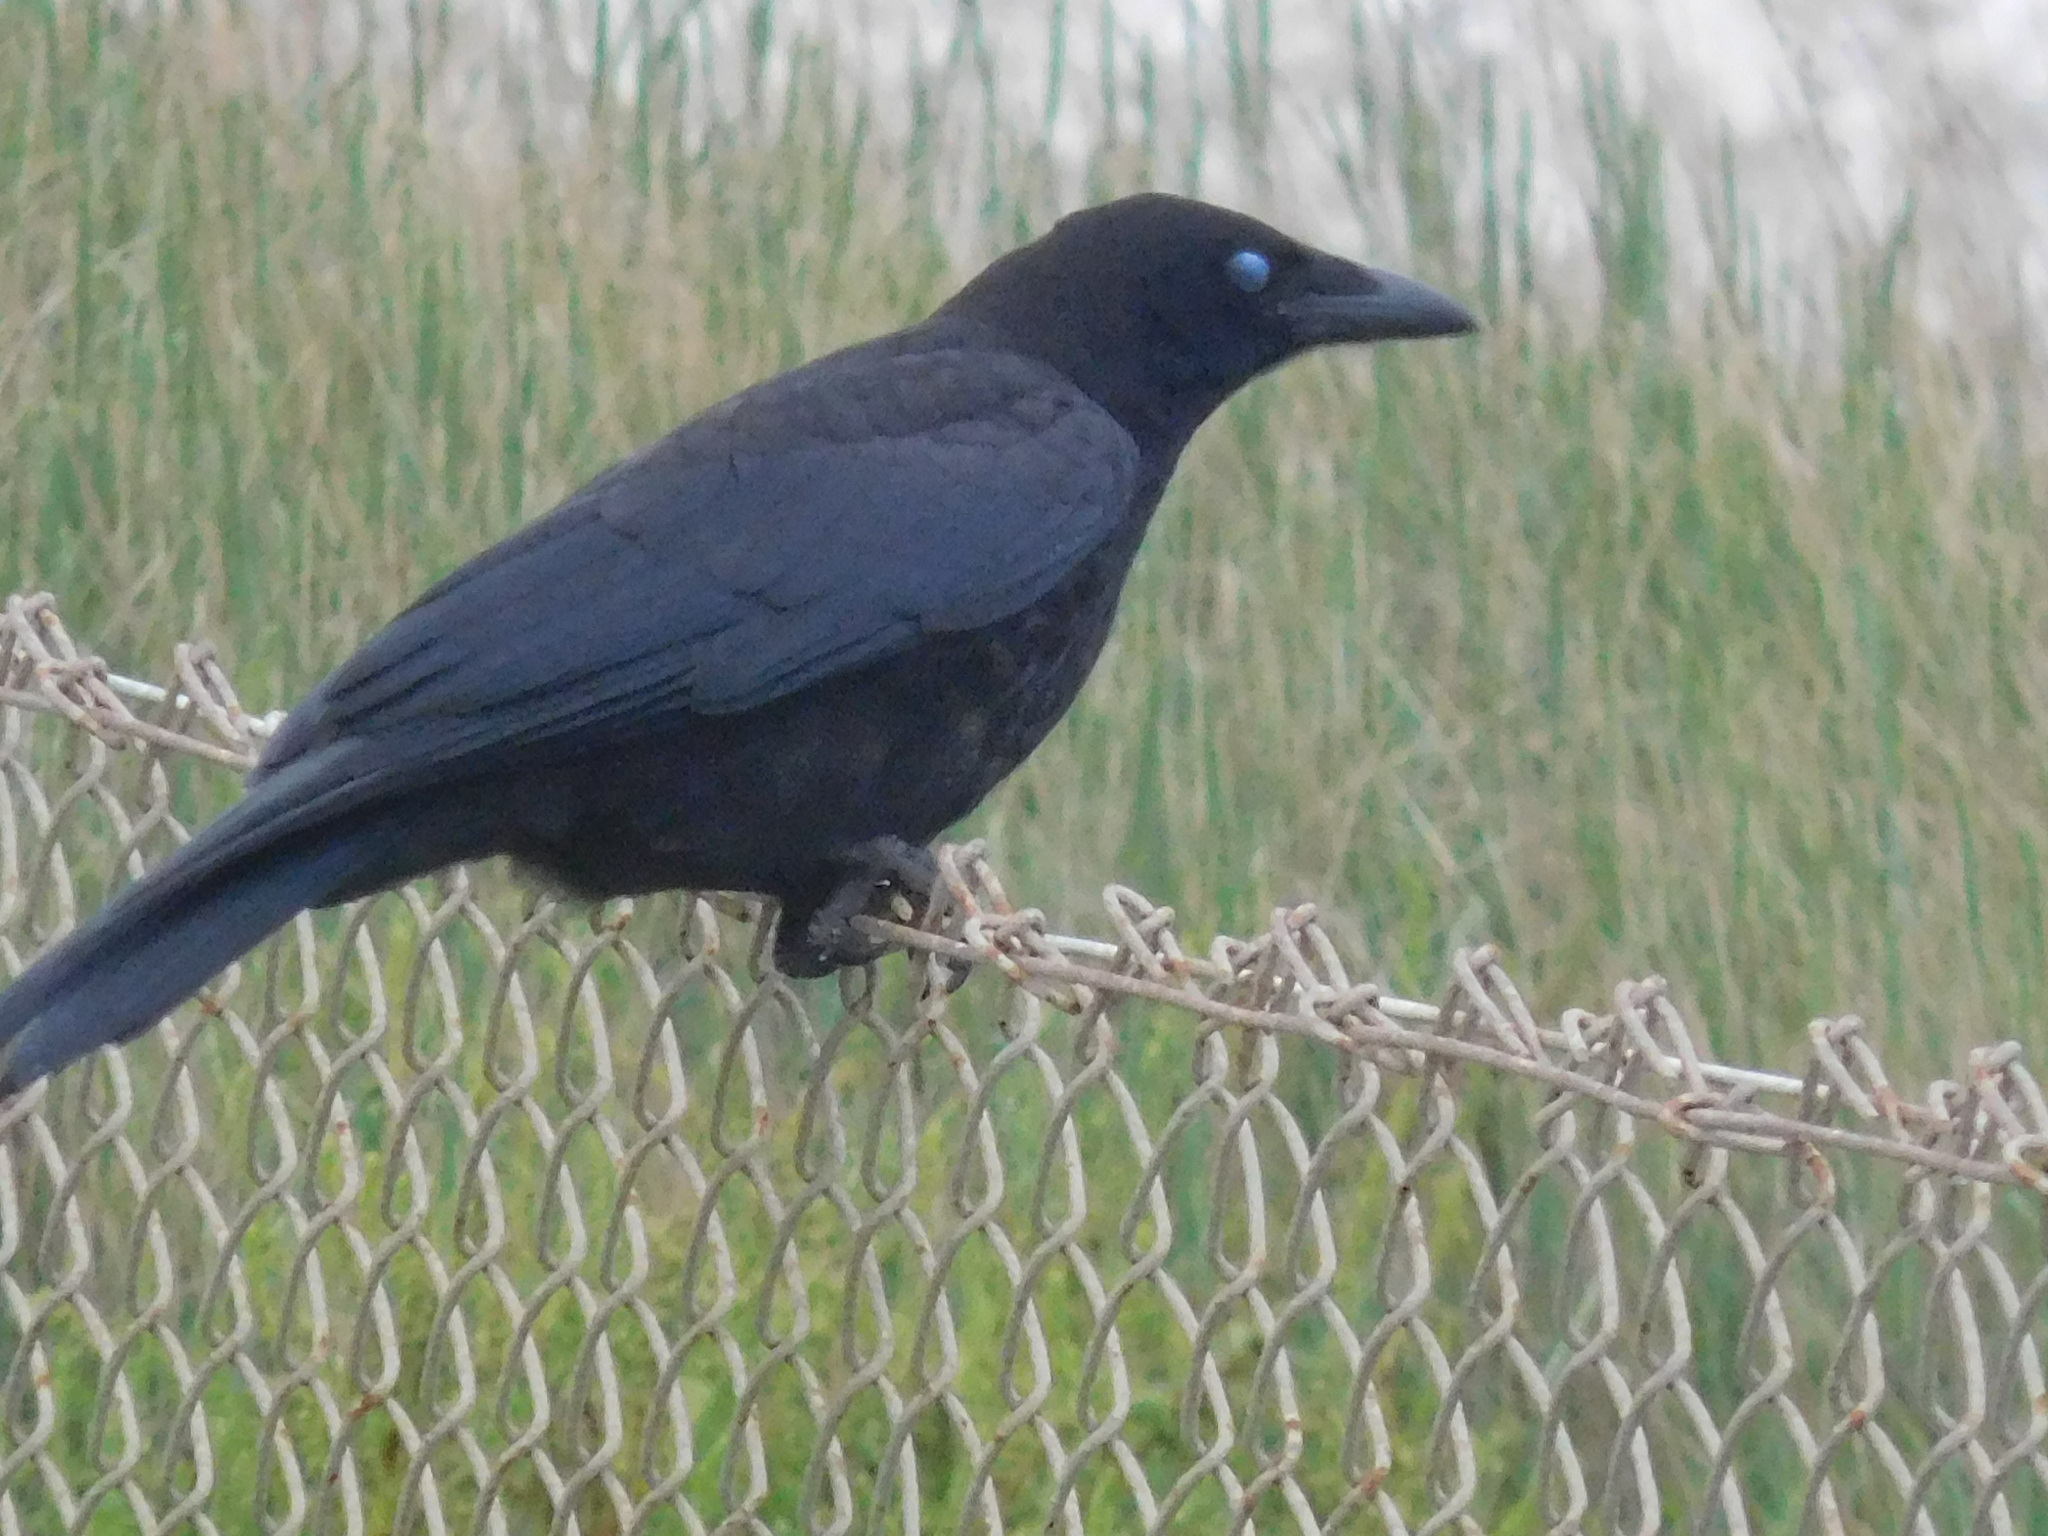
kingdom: Animalia
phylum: Chordata
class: Aves
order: Passeriformes
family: Corvidae
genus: Corvus
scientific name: Corvus corone
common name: Carrion crow
